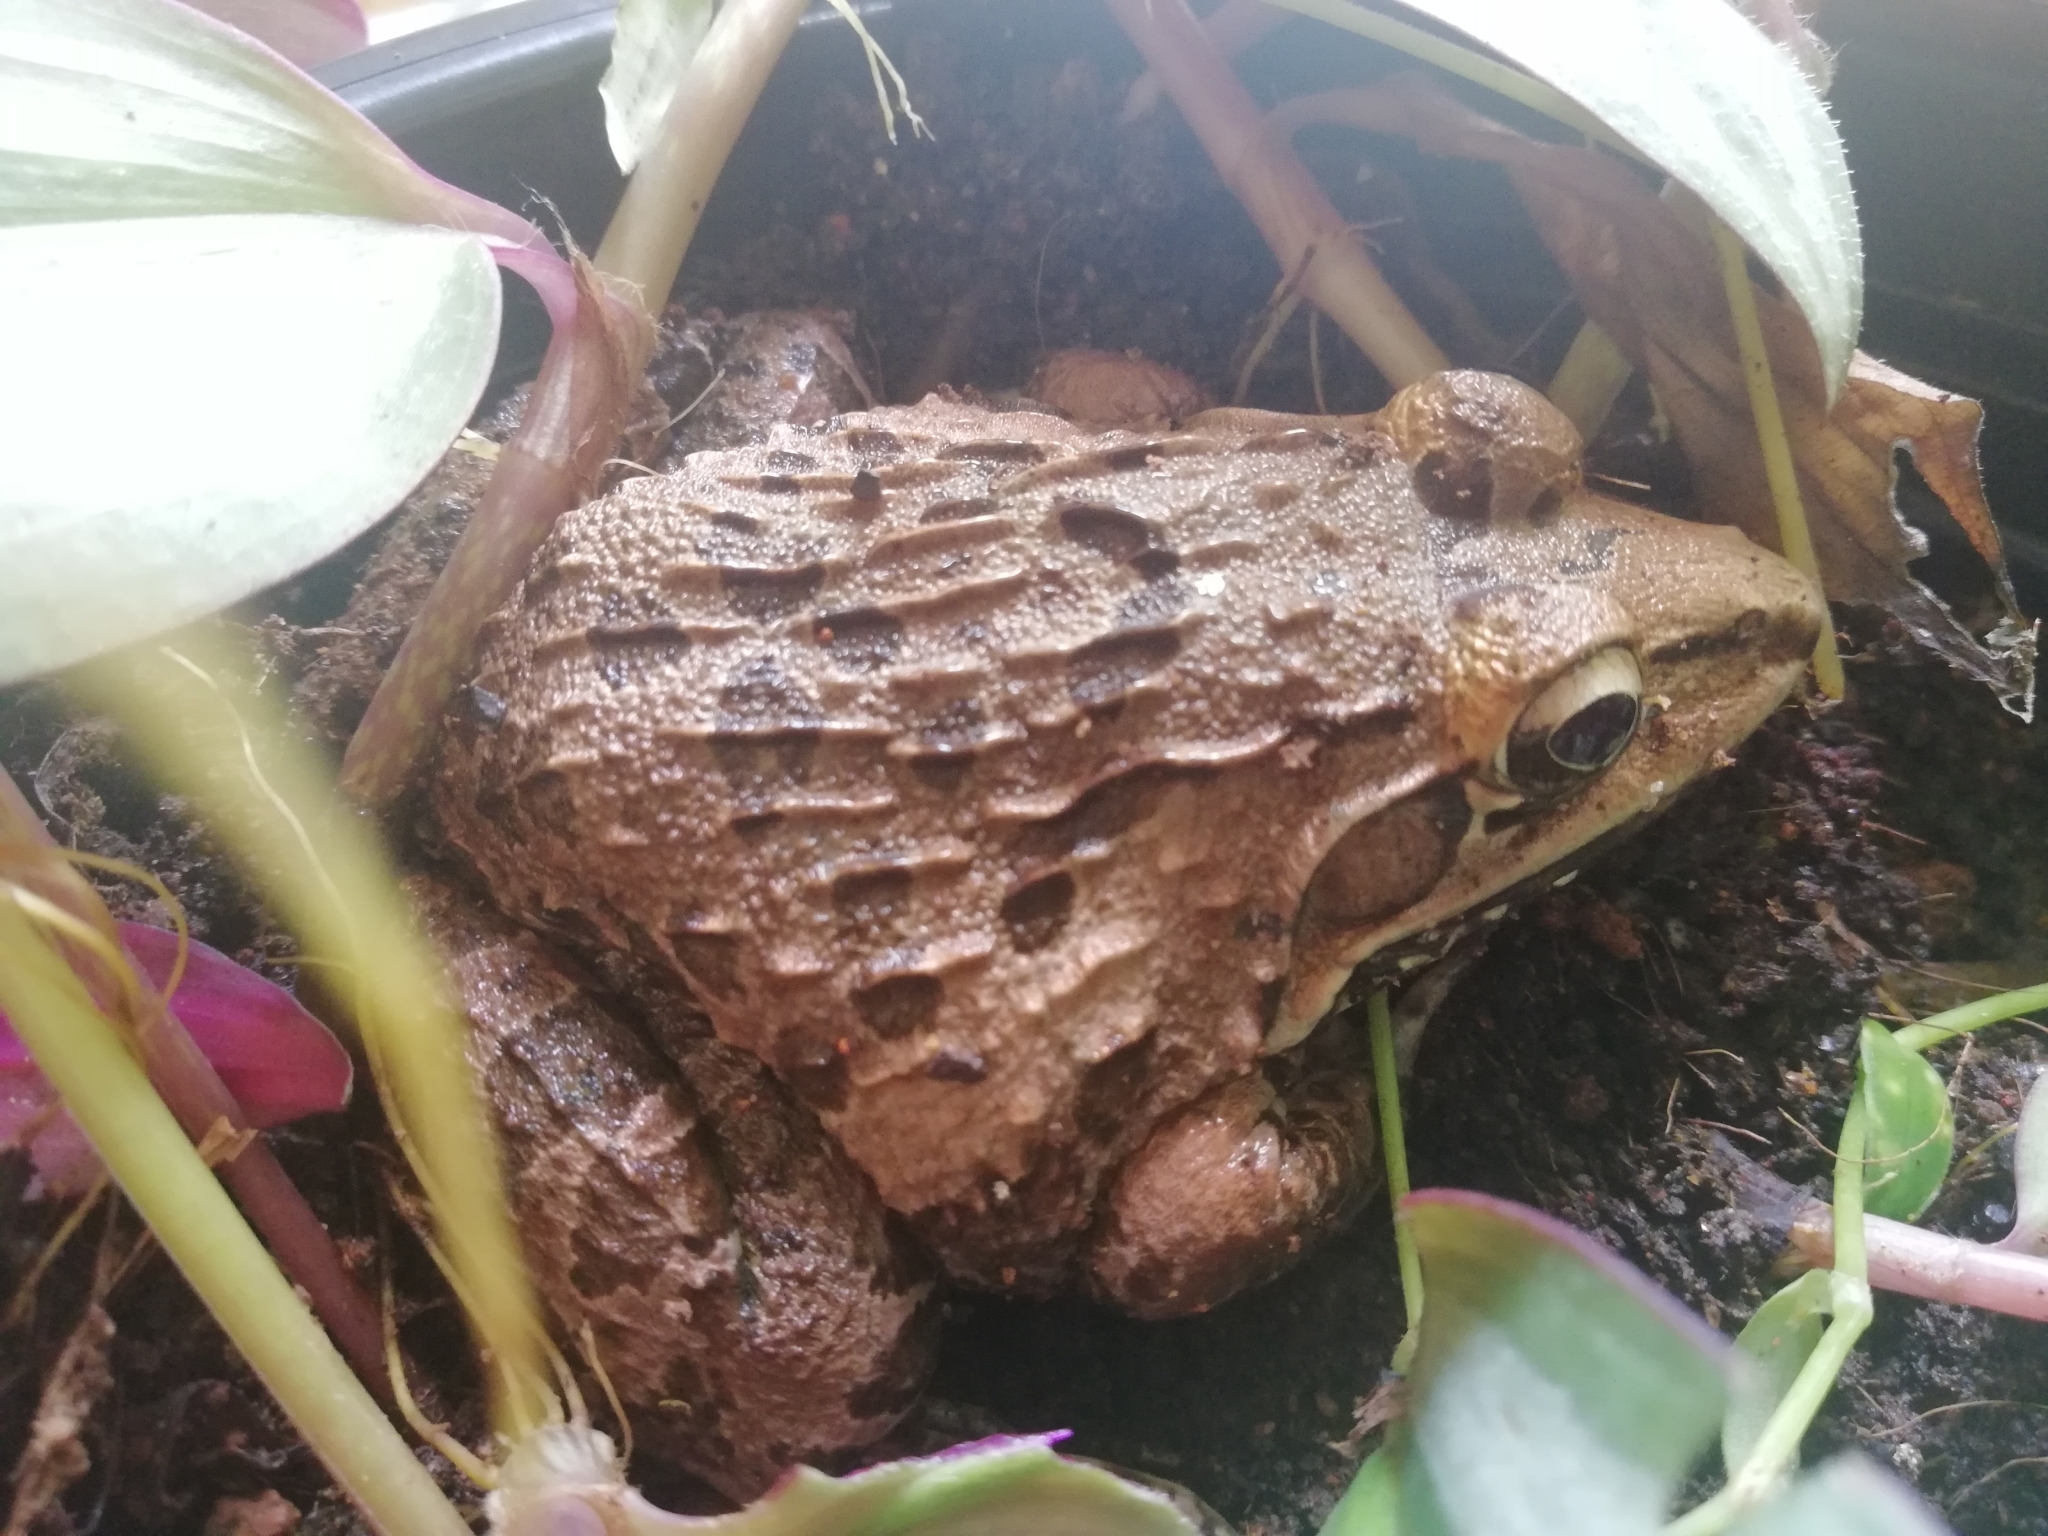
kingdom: Animalia
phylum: Chordata
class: Amphibia
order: Anura
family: Dicroglossidae
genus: Hoplobatrachus
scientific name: Hoplobatrachus tigerinus
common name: Indian bullfrog
